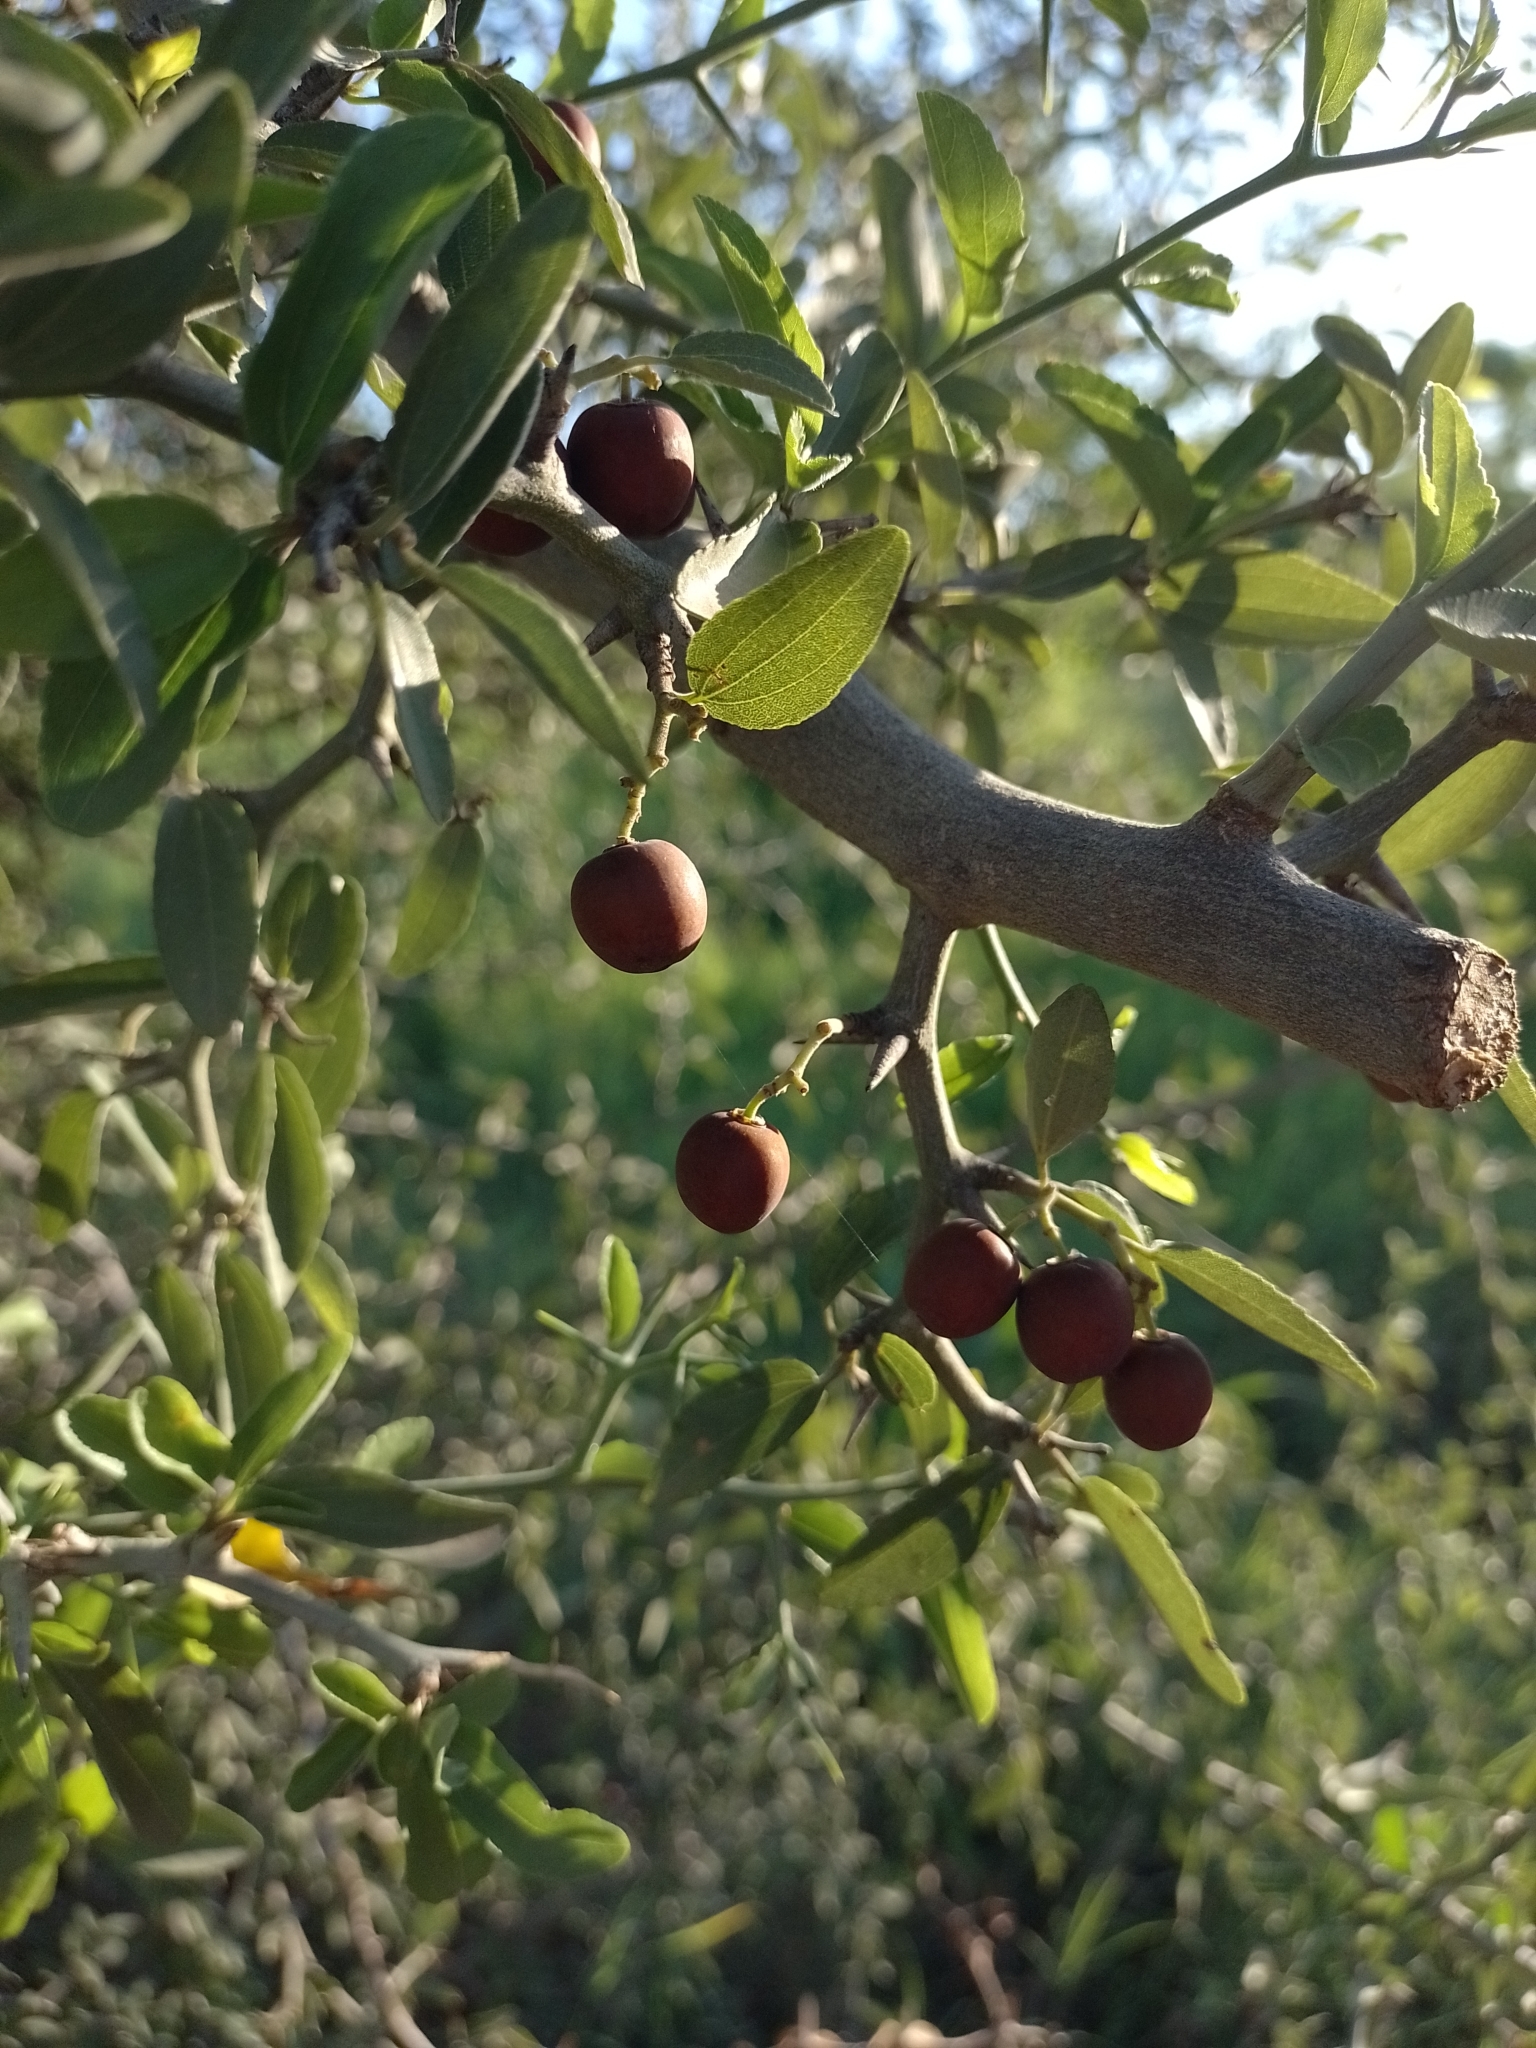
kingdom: Plantae
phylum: Tracheophyta
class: Magnoliopsida
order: Rosales
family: Rhamnaceae
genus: Sarcomphalus
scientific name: Sarcomphalus mistol
